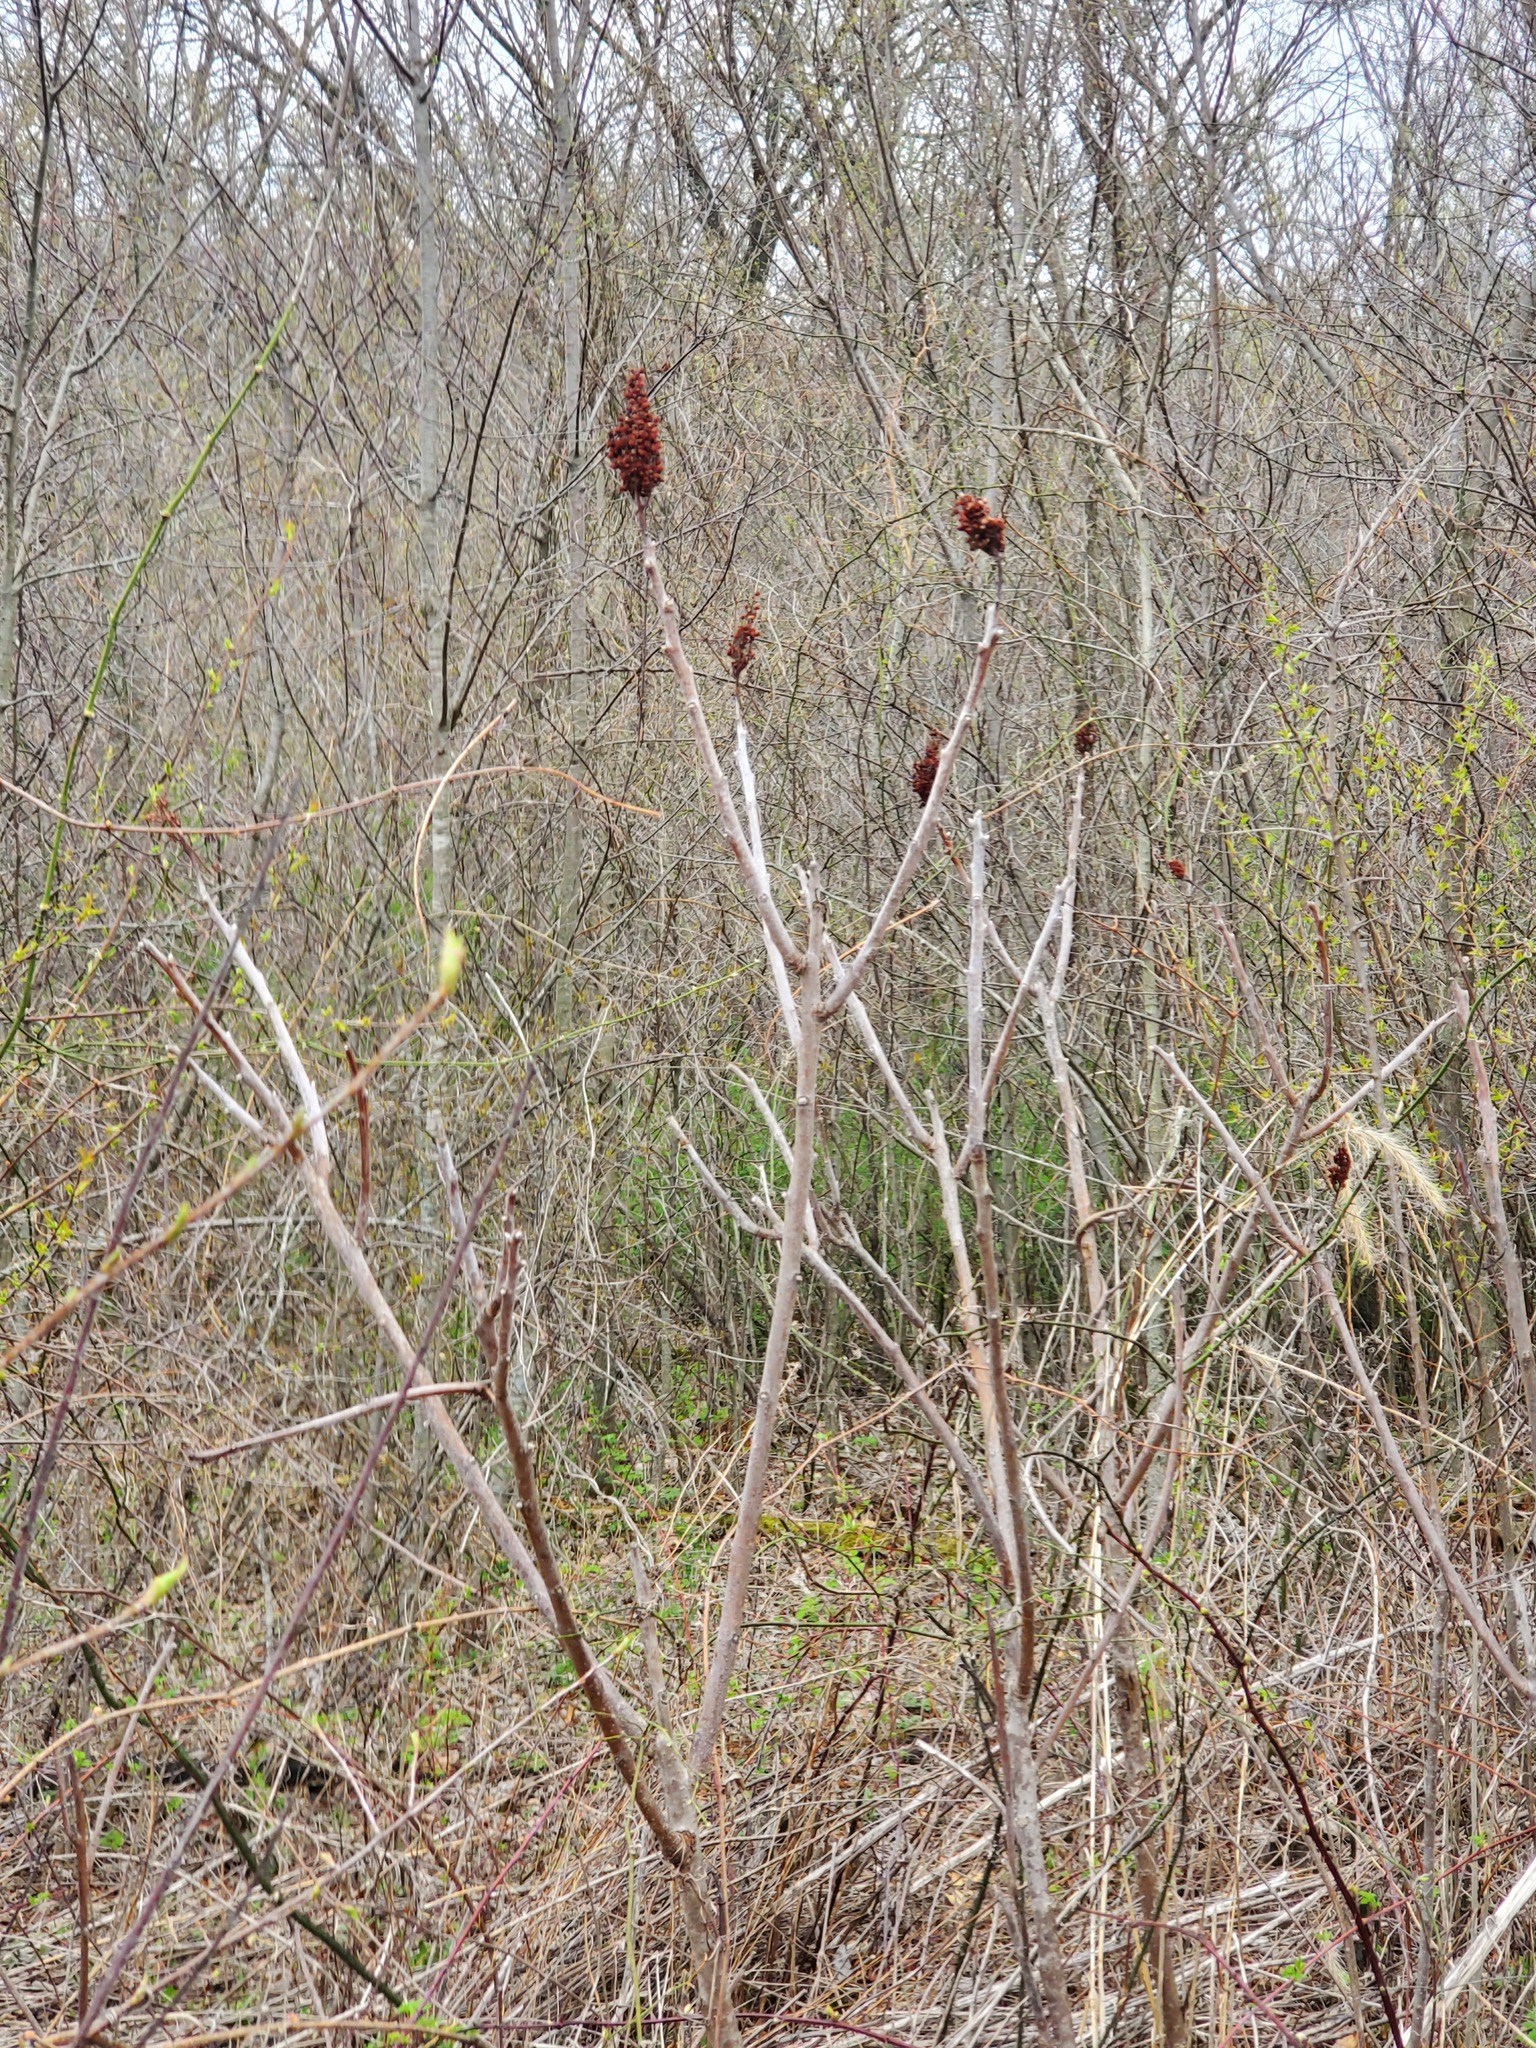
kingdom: Plantae
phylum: Tracheophyta
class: Magnoliopsida
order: Sapindales
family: Anacardiaceae
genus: Rhus
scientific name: Rhus glabra
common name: Scarlet sumac
